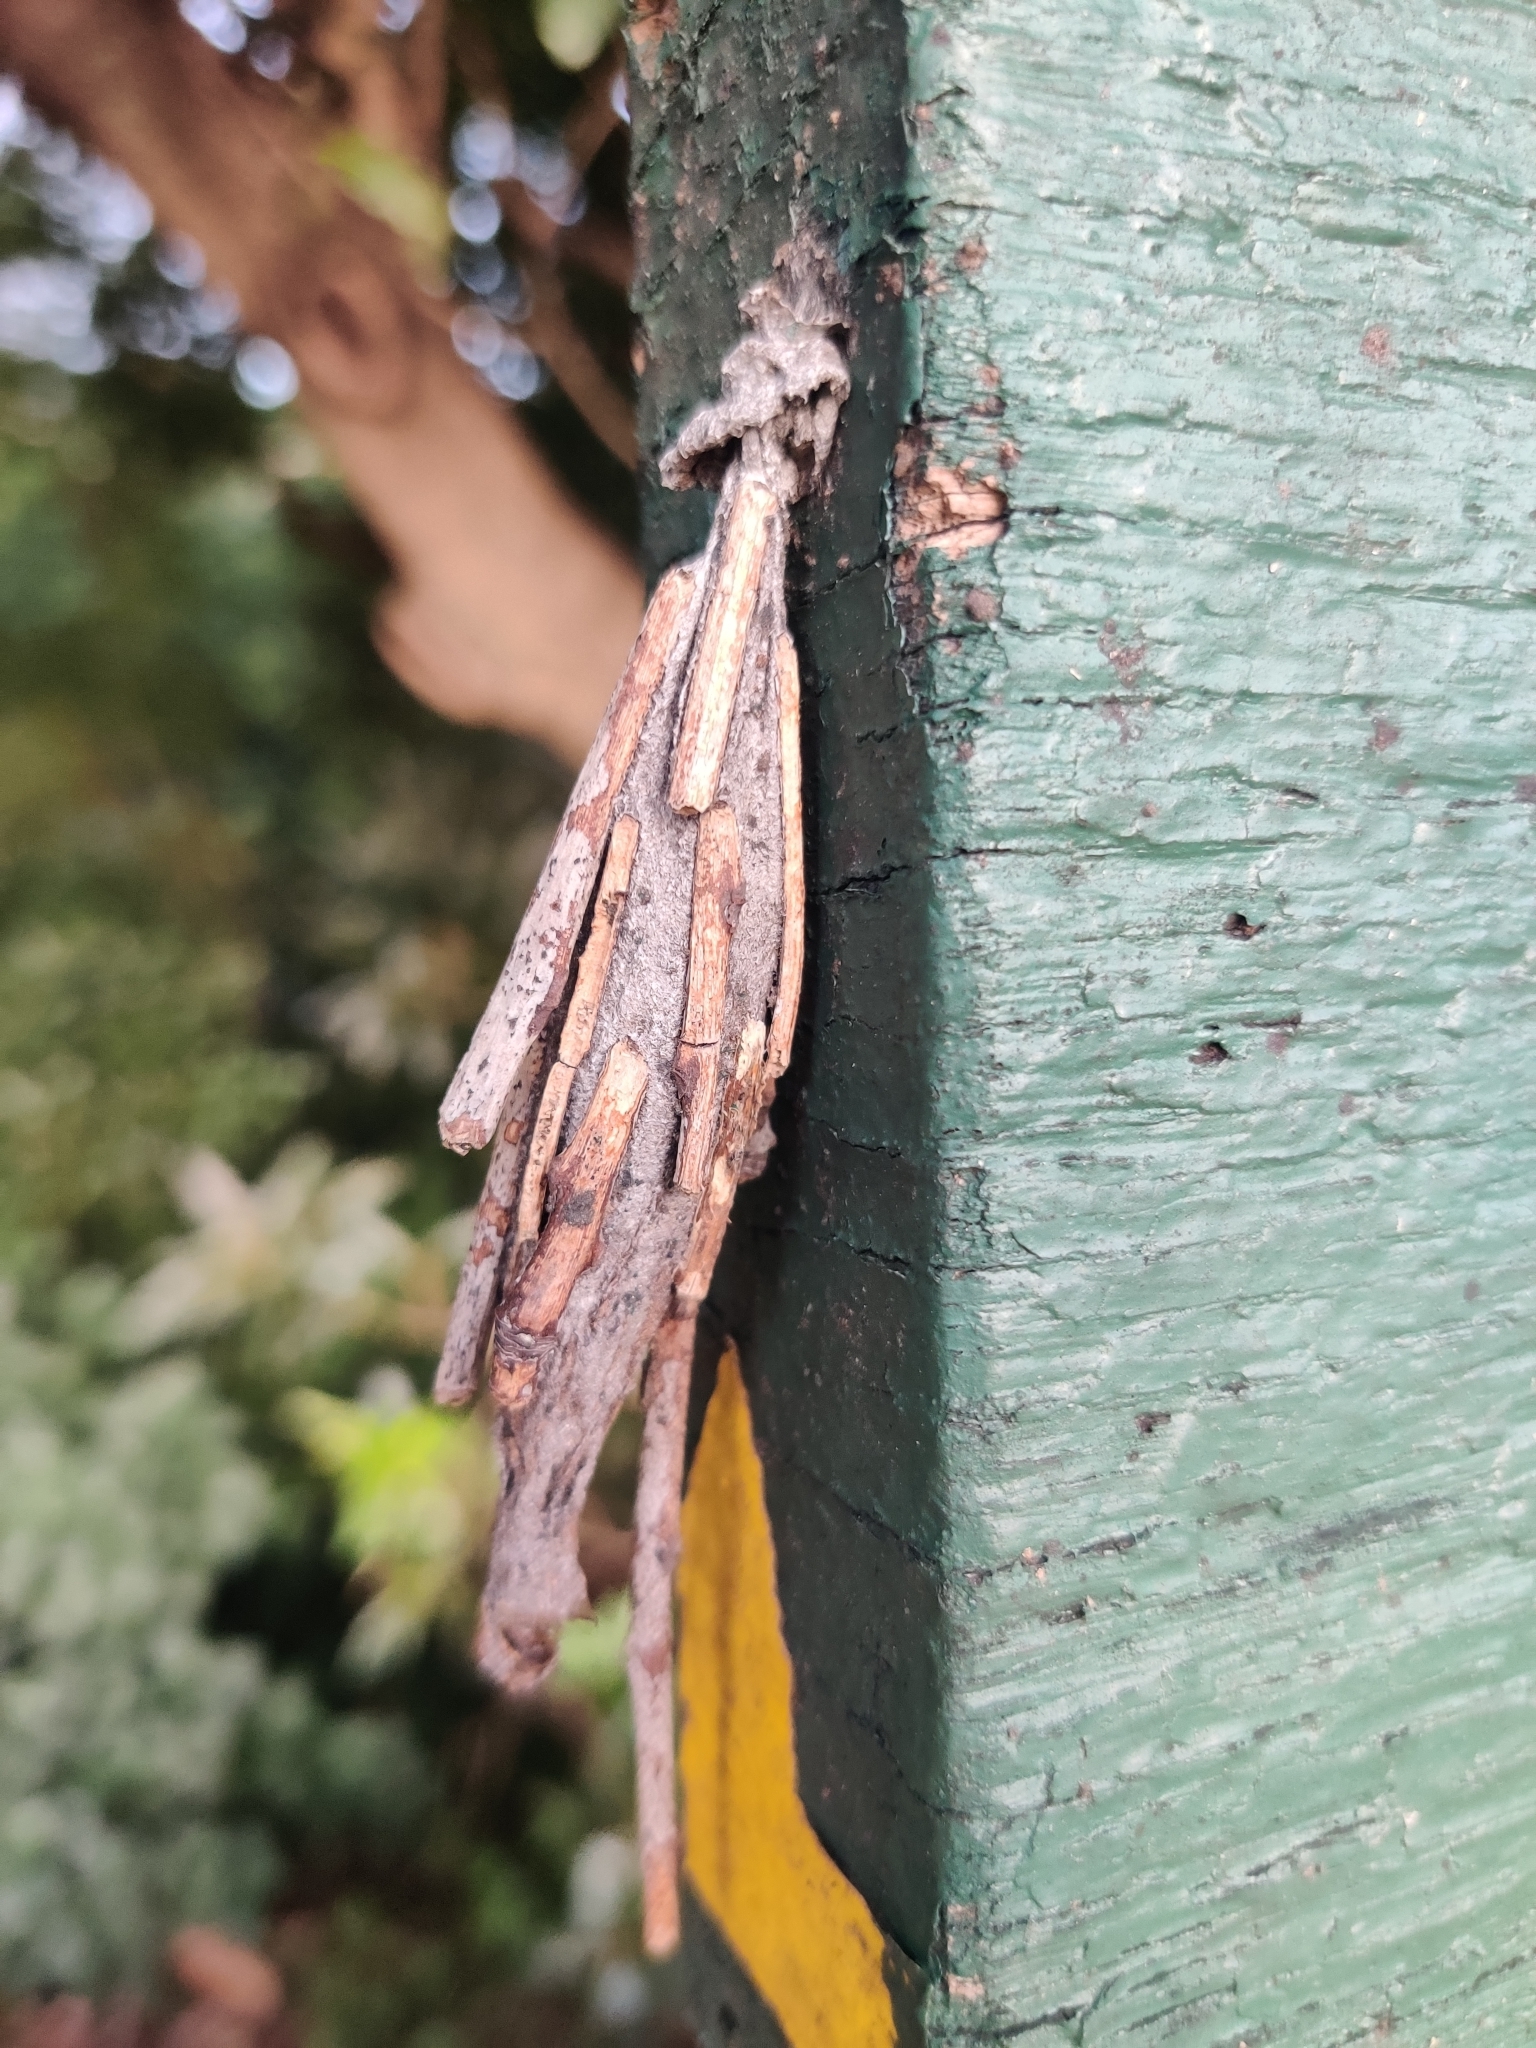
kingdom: Animalia
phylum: Arthropoda
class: Insecta
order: Lepidoptera
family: Psychidae
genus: Metura
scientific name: Metura elongatus
